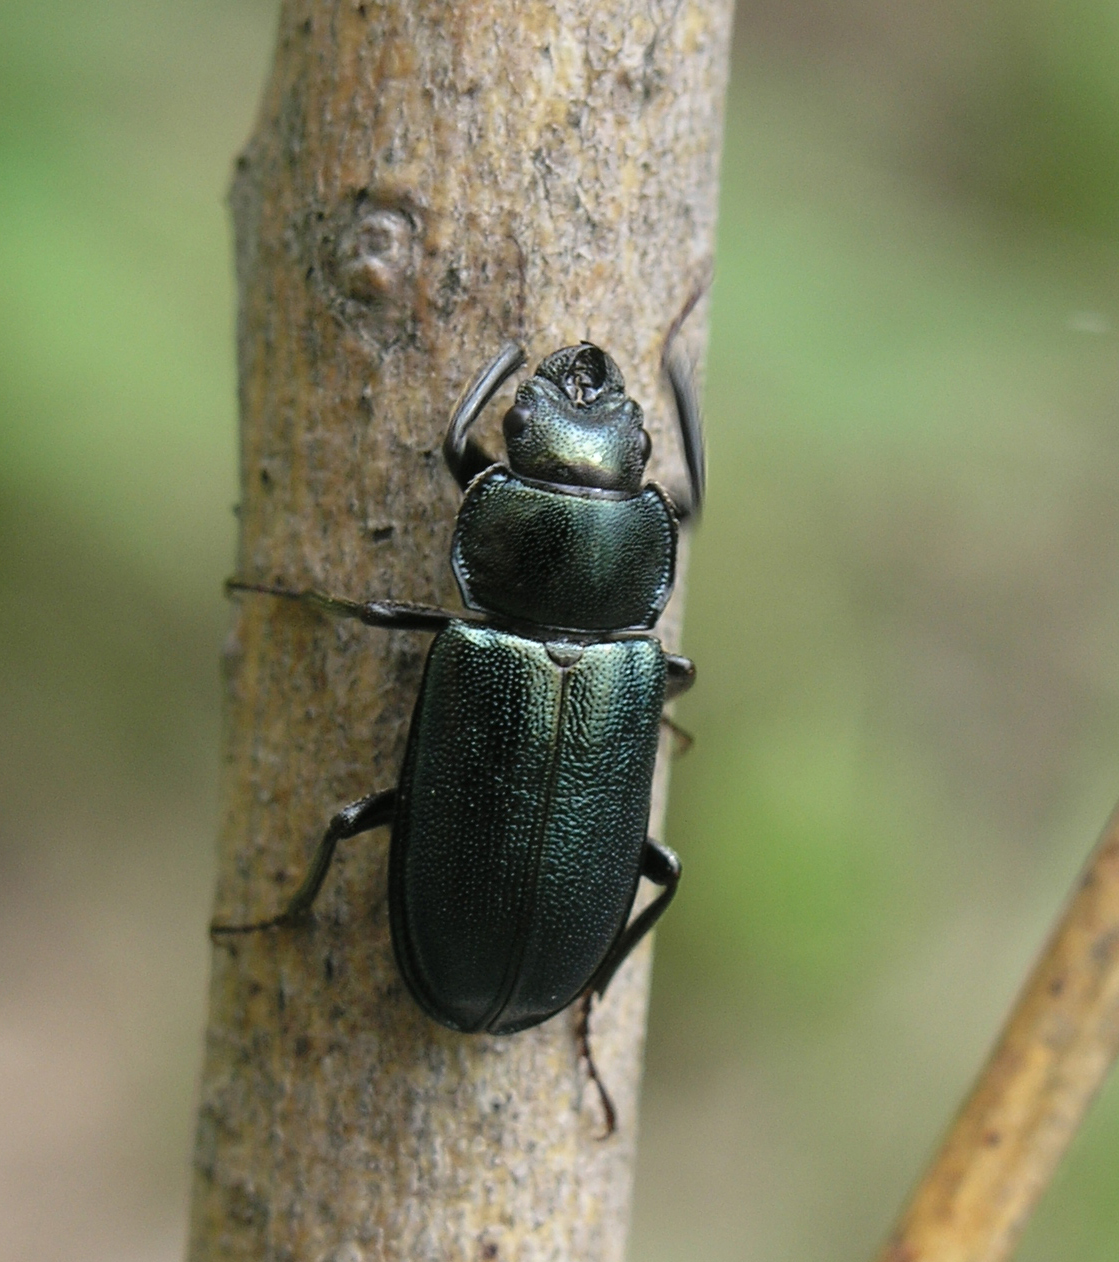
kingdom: Animalia
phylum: Arthropoda
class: Insecta
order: Coleoptera
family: Lucanidae
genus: Platycerus
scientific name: Platycerus caraboides
